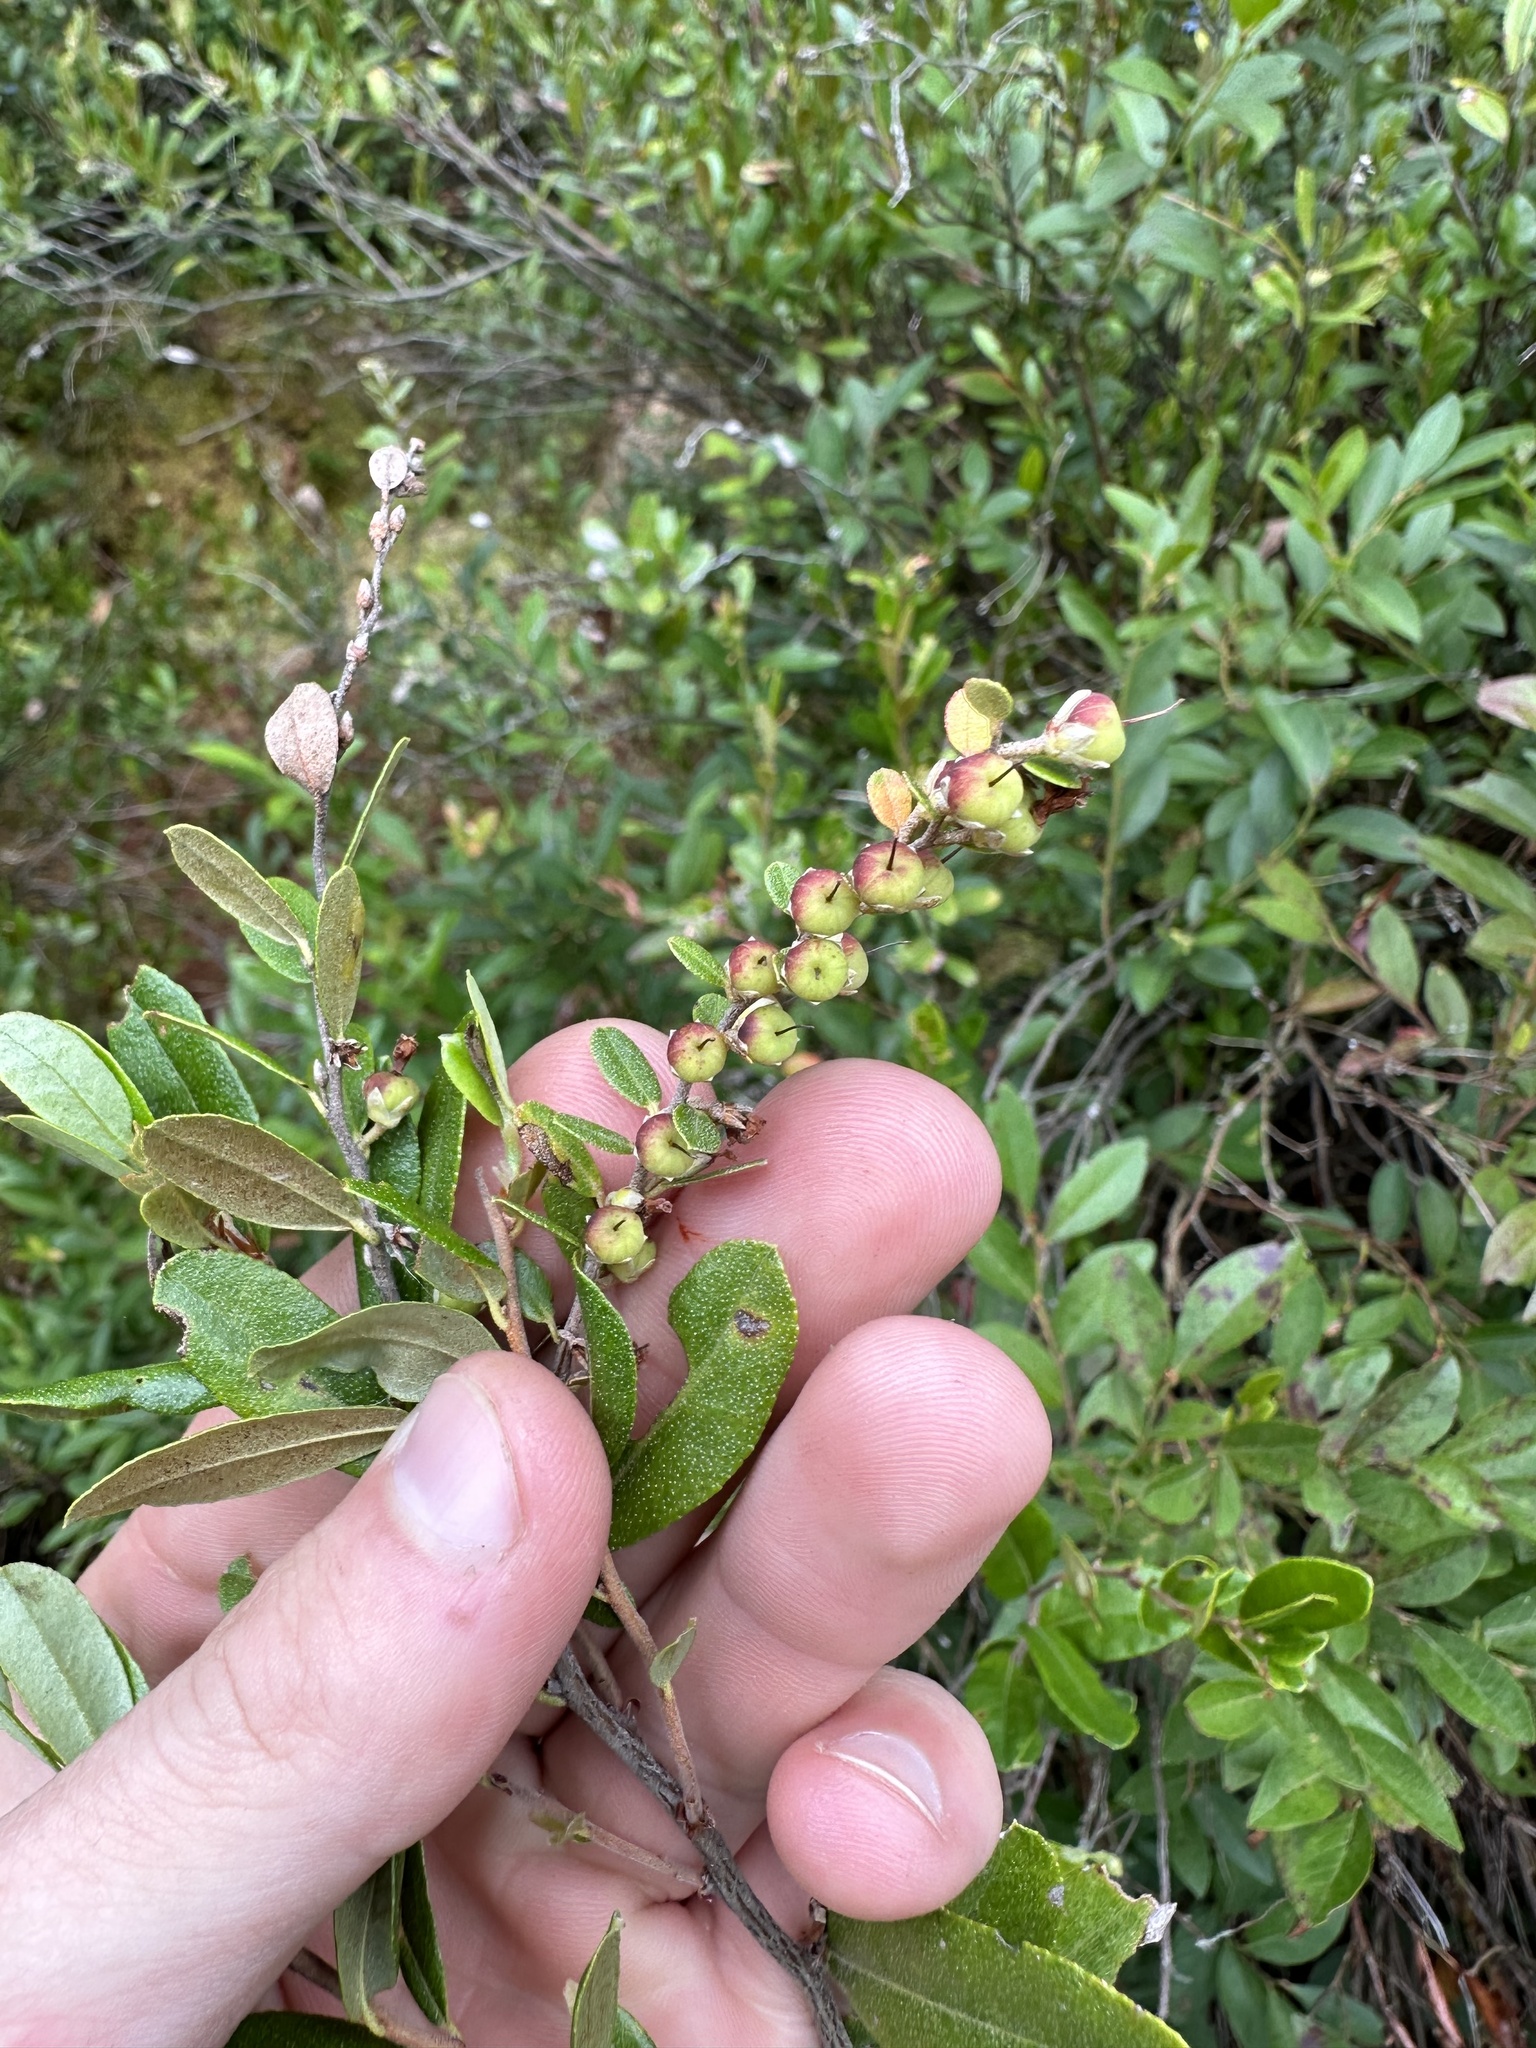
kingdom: Plantae
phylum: Tracheophyta
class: Magnoliopsida
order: Ericales
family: Ericaceae
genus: Chamaedaphne
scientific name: Chamaedaphne calyculata
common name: Leatherleaf
